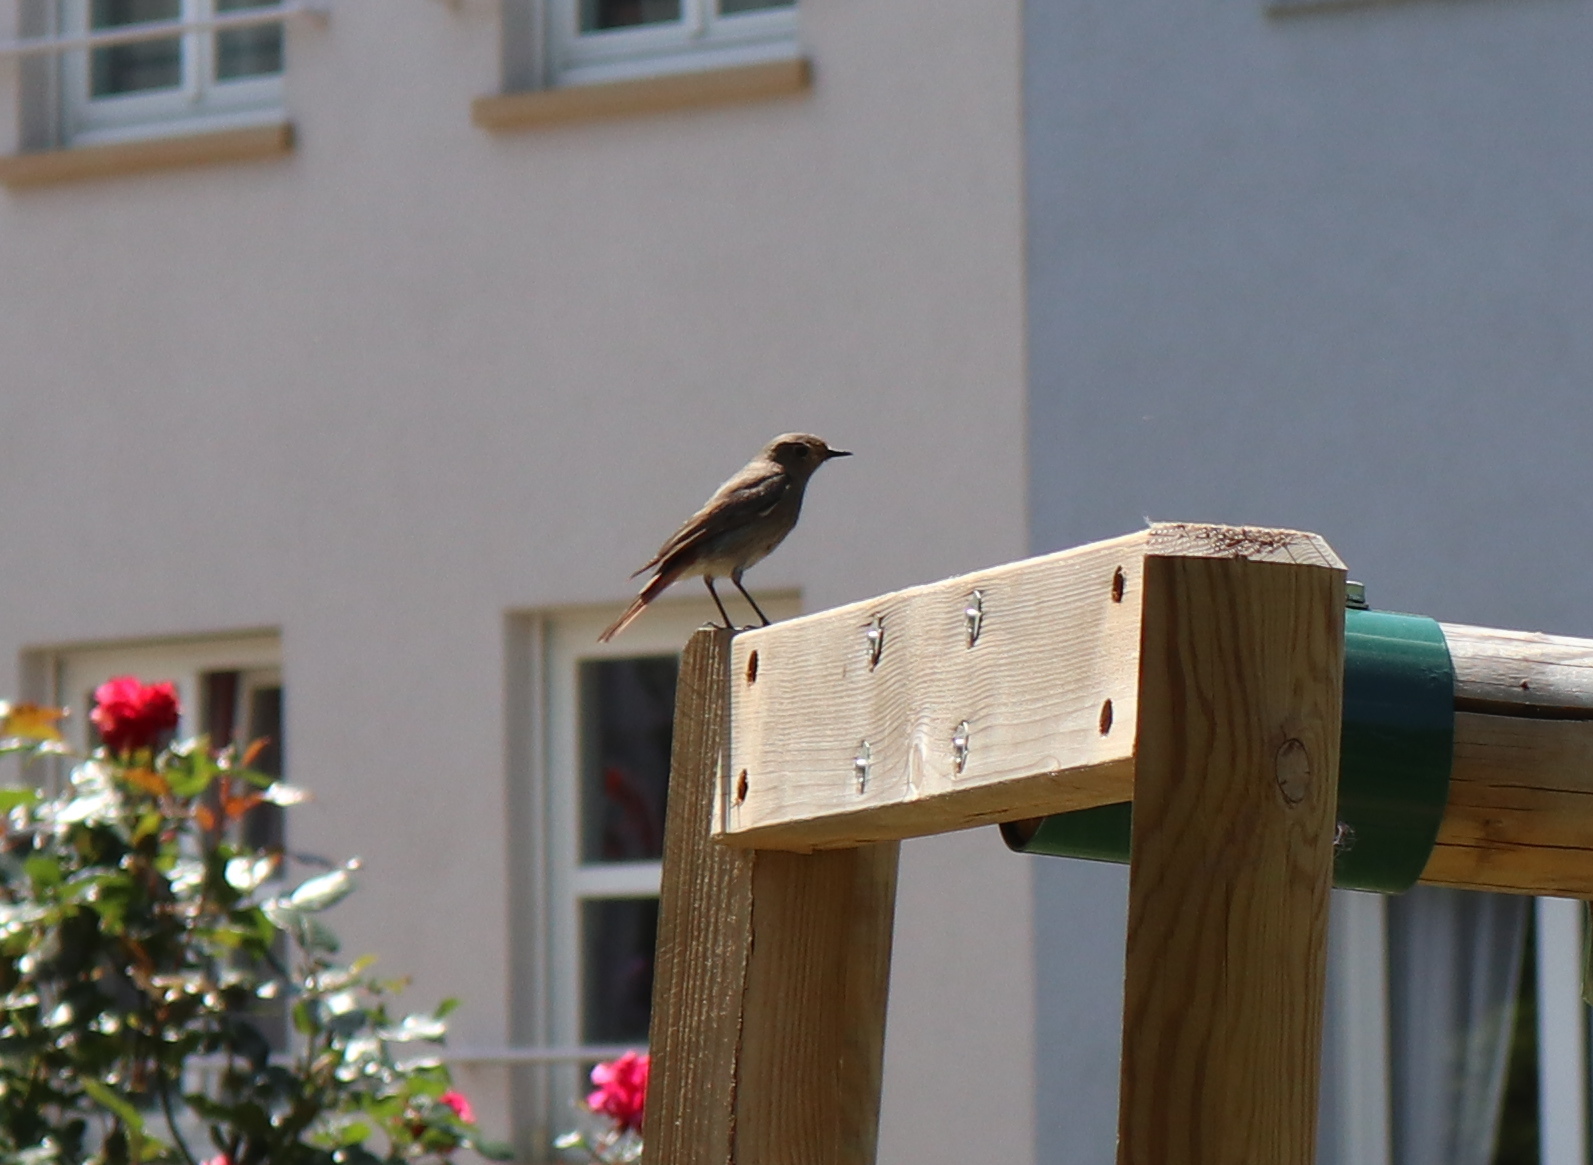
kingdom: Animalia
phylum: Chordata
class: Aves
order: Passeriformes
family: Muscicapidae
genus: Phoenicurus
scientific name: Phoenicurus ochruros
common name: Black redstart
